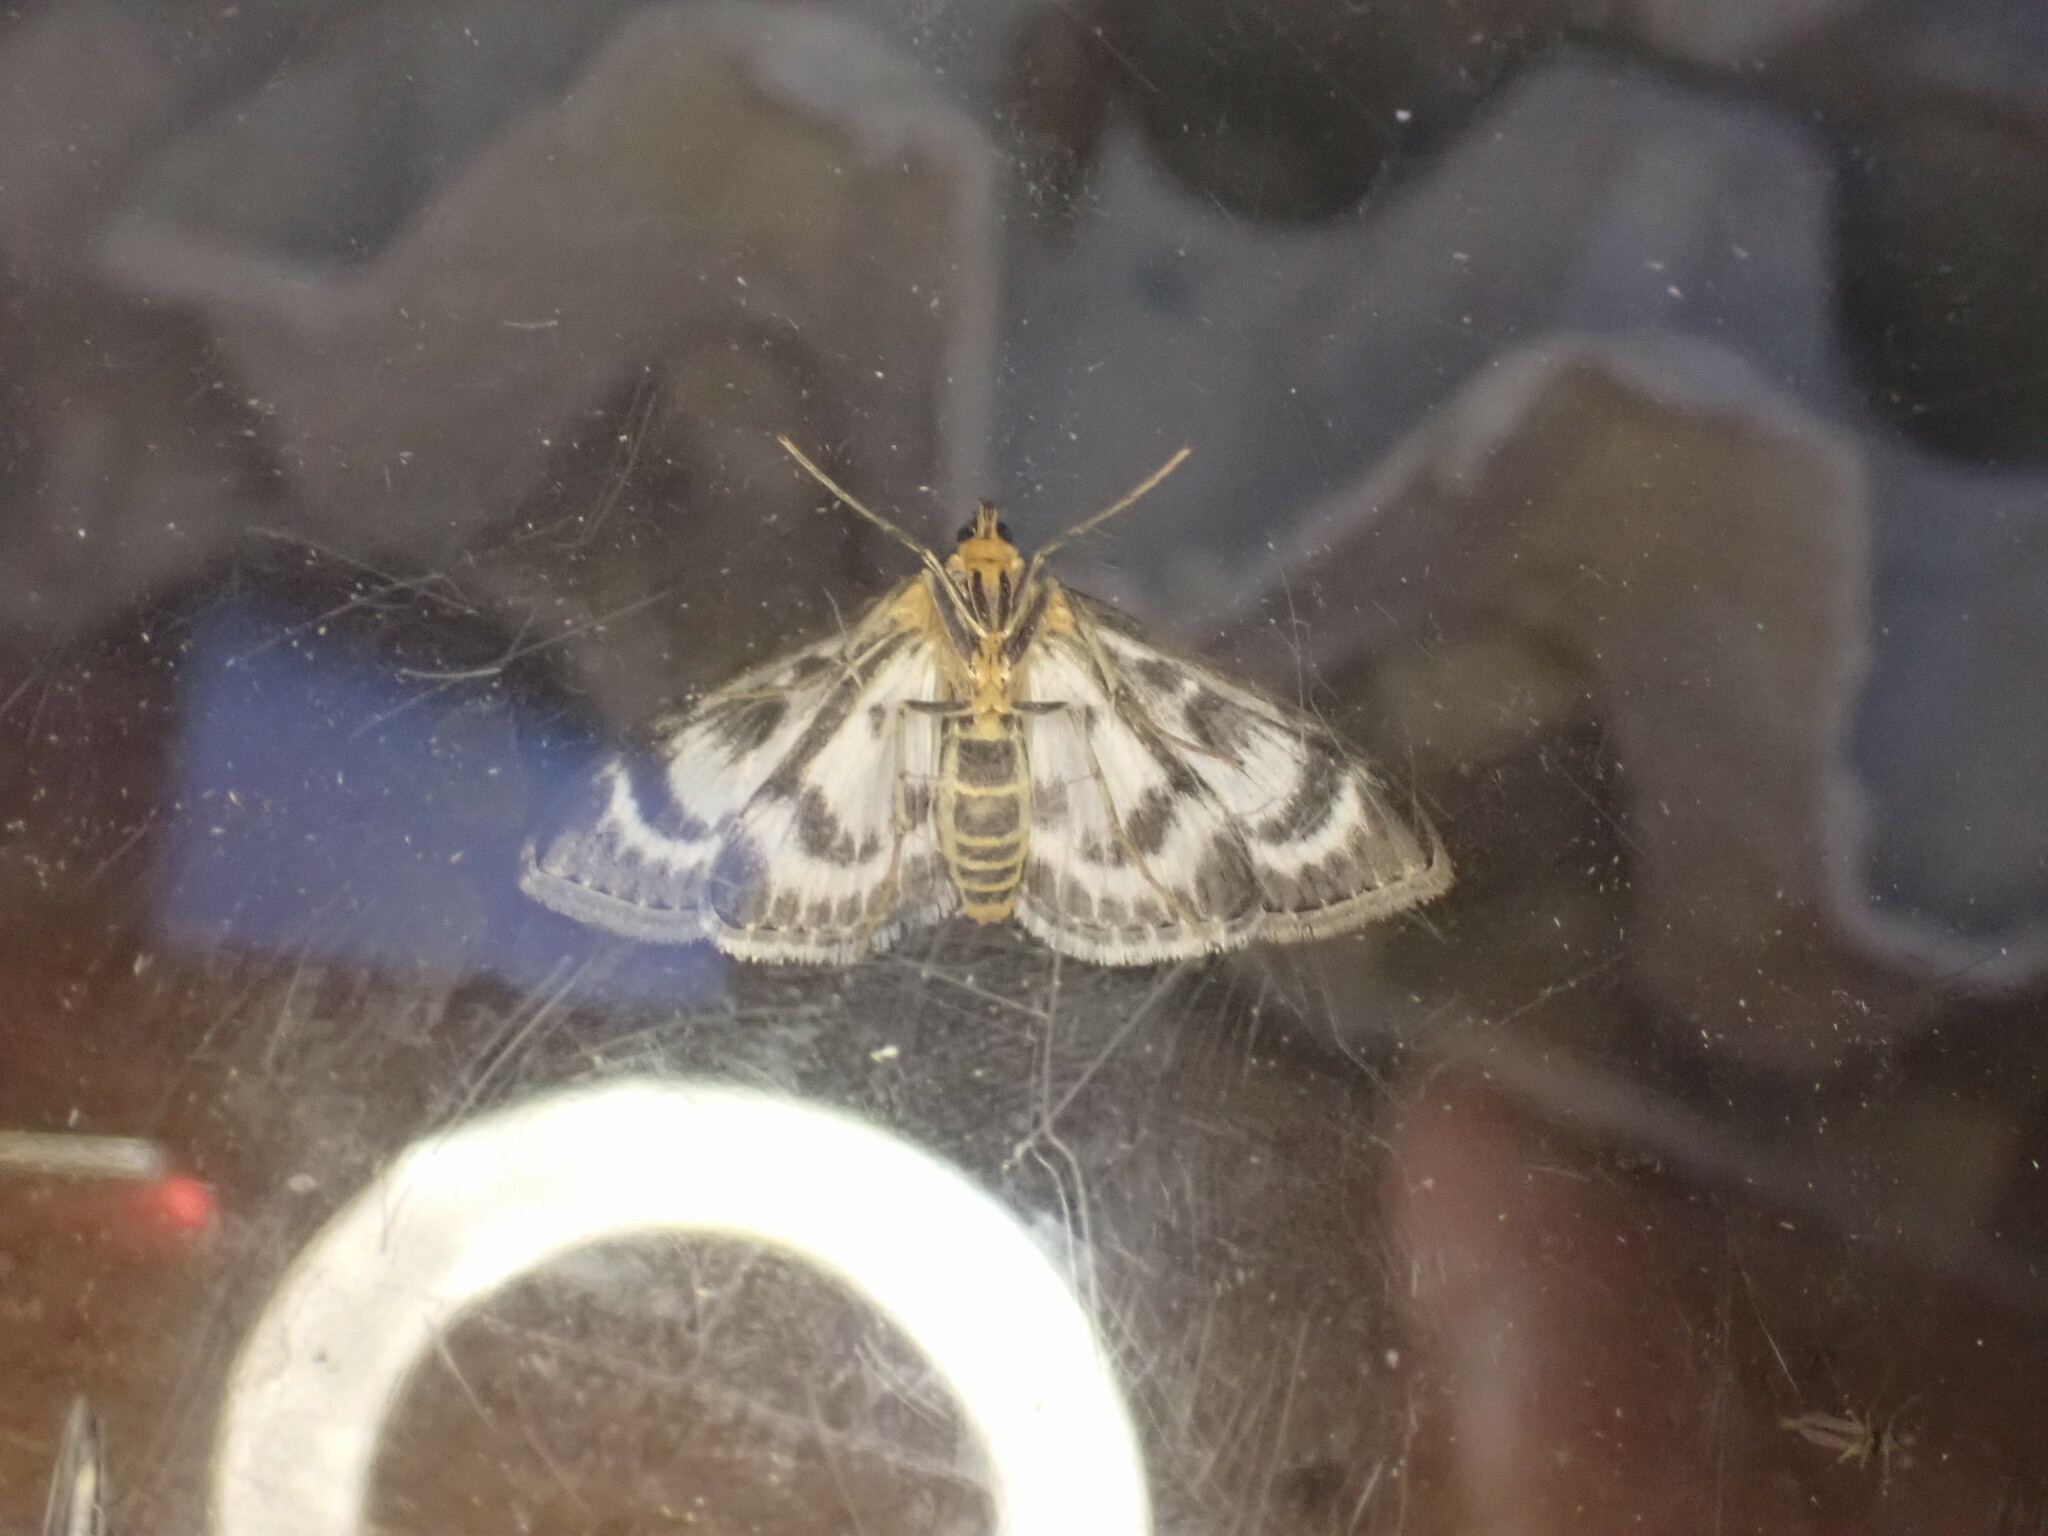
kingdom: Animalia
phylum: Arthropoda
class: Insecta
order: Lepidoptera
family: Crambidae
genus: Anania
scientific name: Anania hortulata
